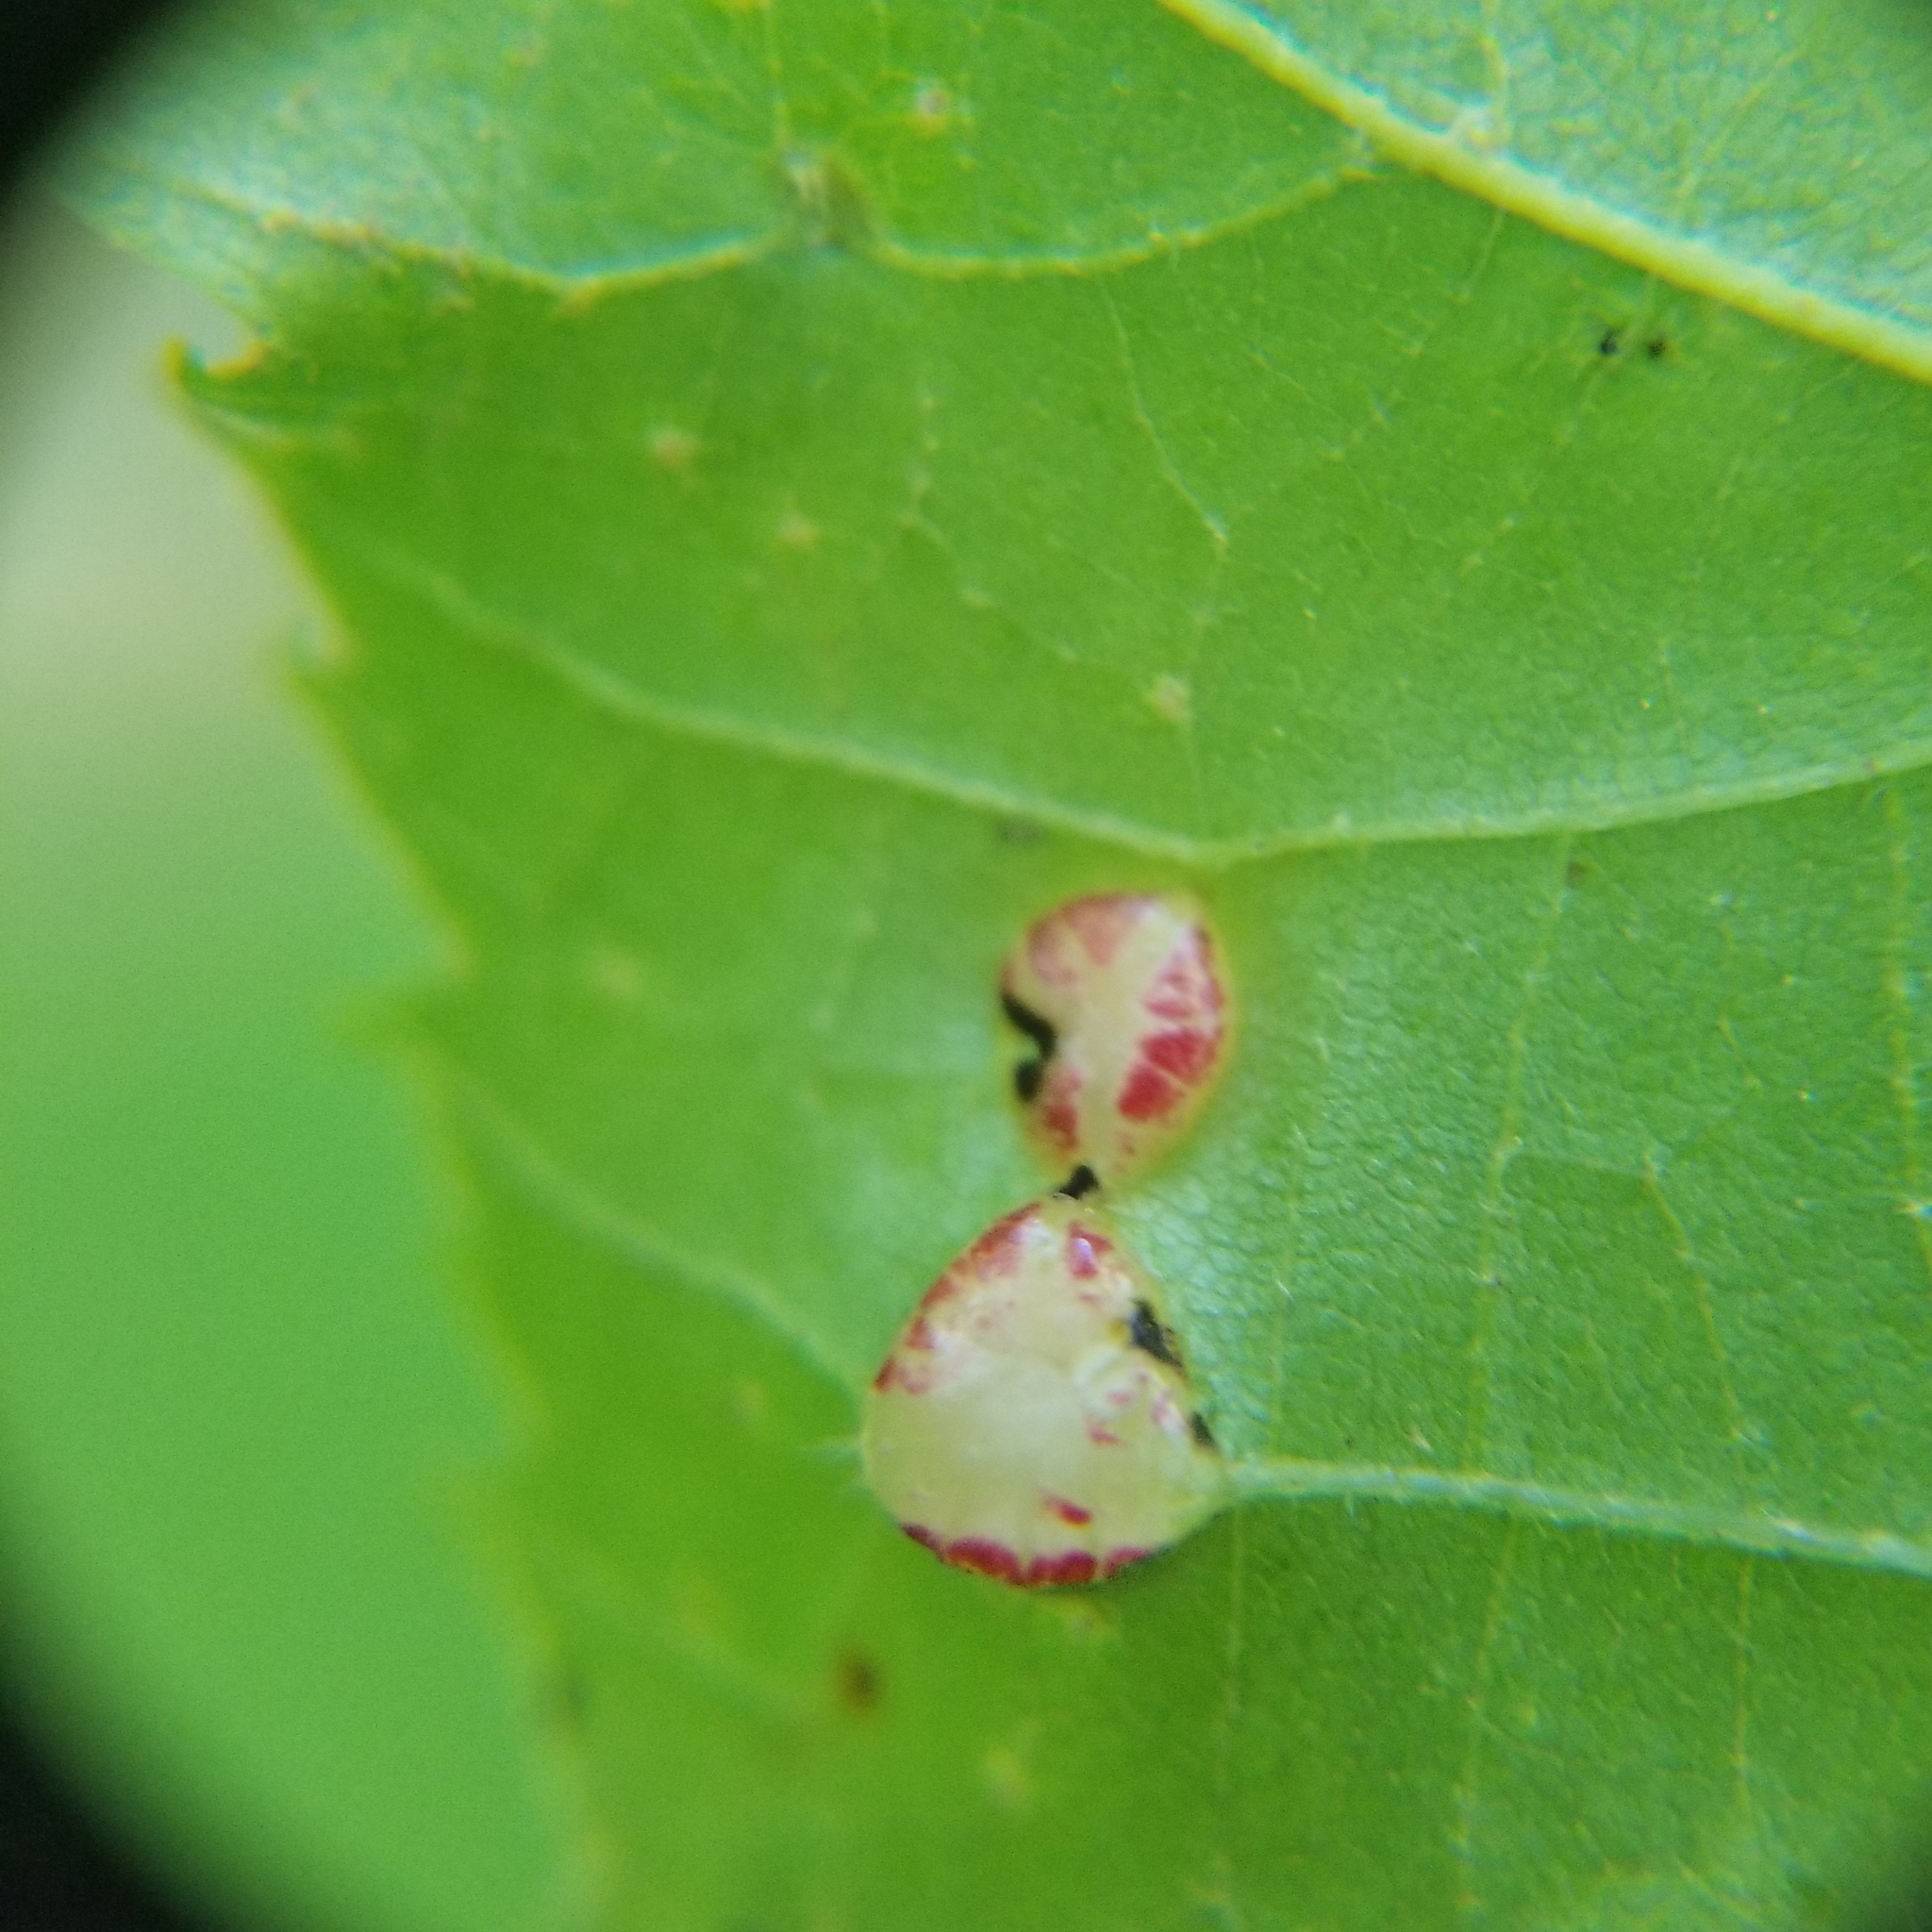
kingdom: Animalia
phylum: Arthropoda
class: Insecta
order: Diptera
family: Cecidomyiidae
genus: Contarinia
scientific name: Contarinia verrucicola
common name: Linden wart gall midge
